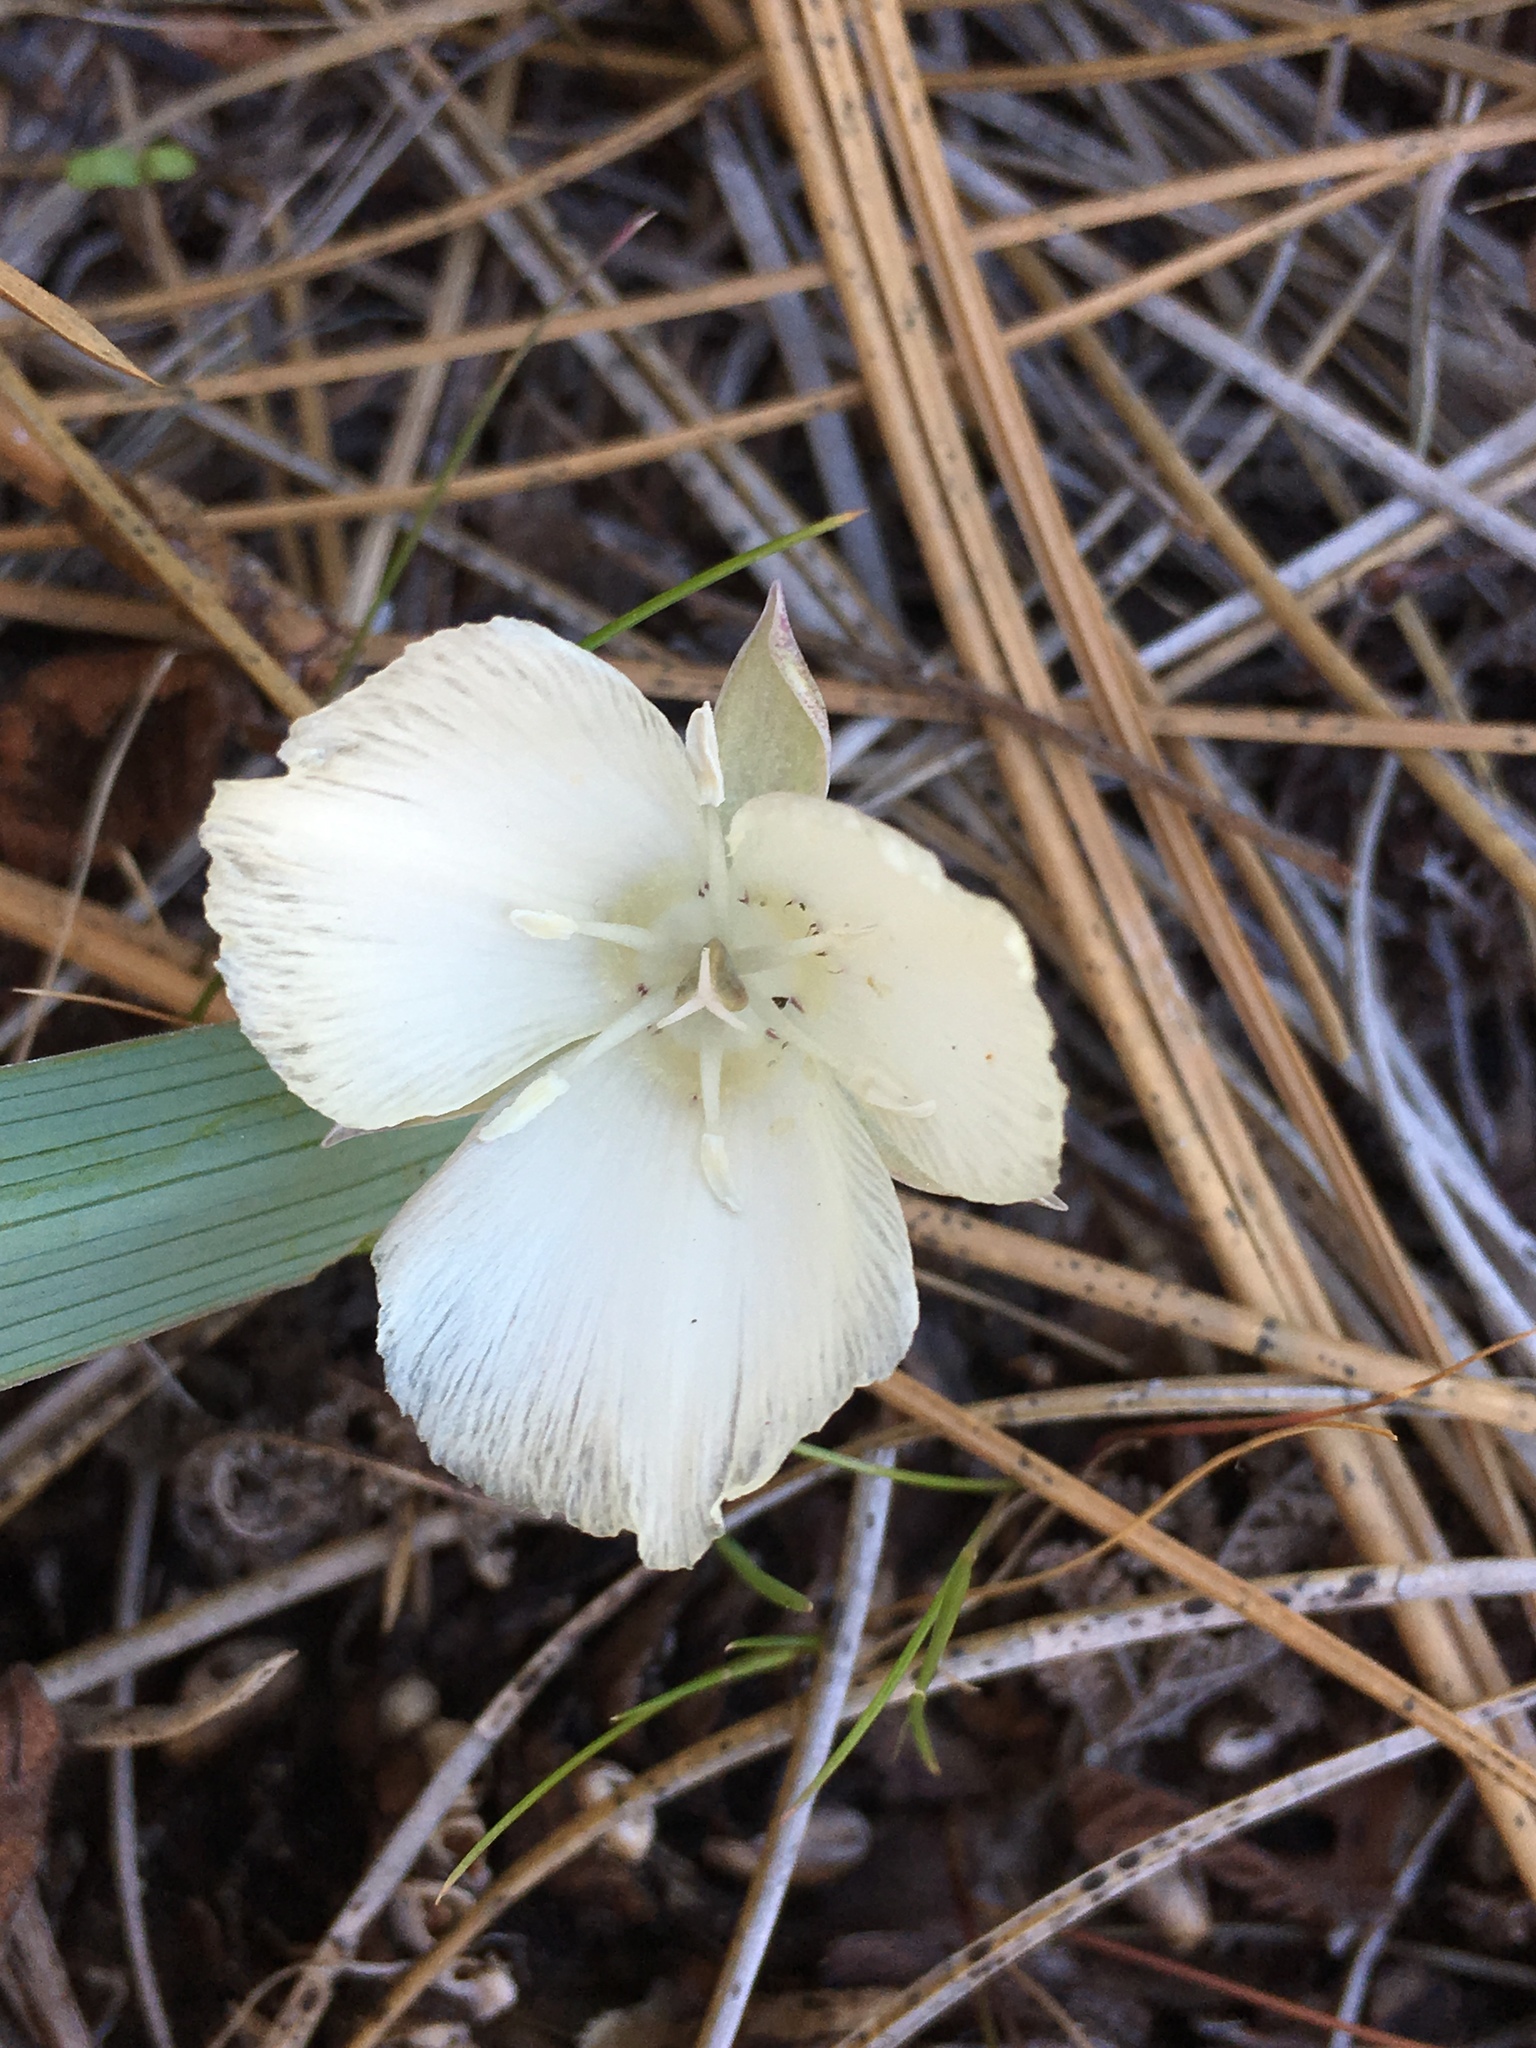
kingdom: Plantae
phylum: Tracheophyta
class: Liliopsida
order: Liliales
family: Liliaceae
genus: Calochortus
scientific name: Calochortus minimus
